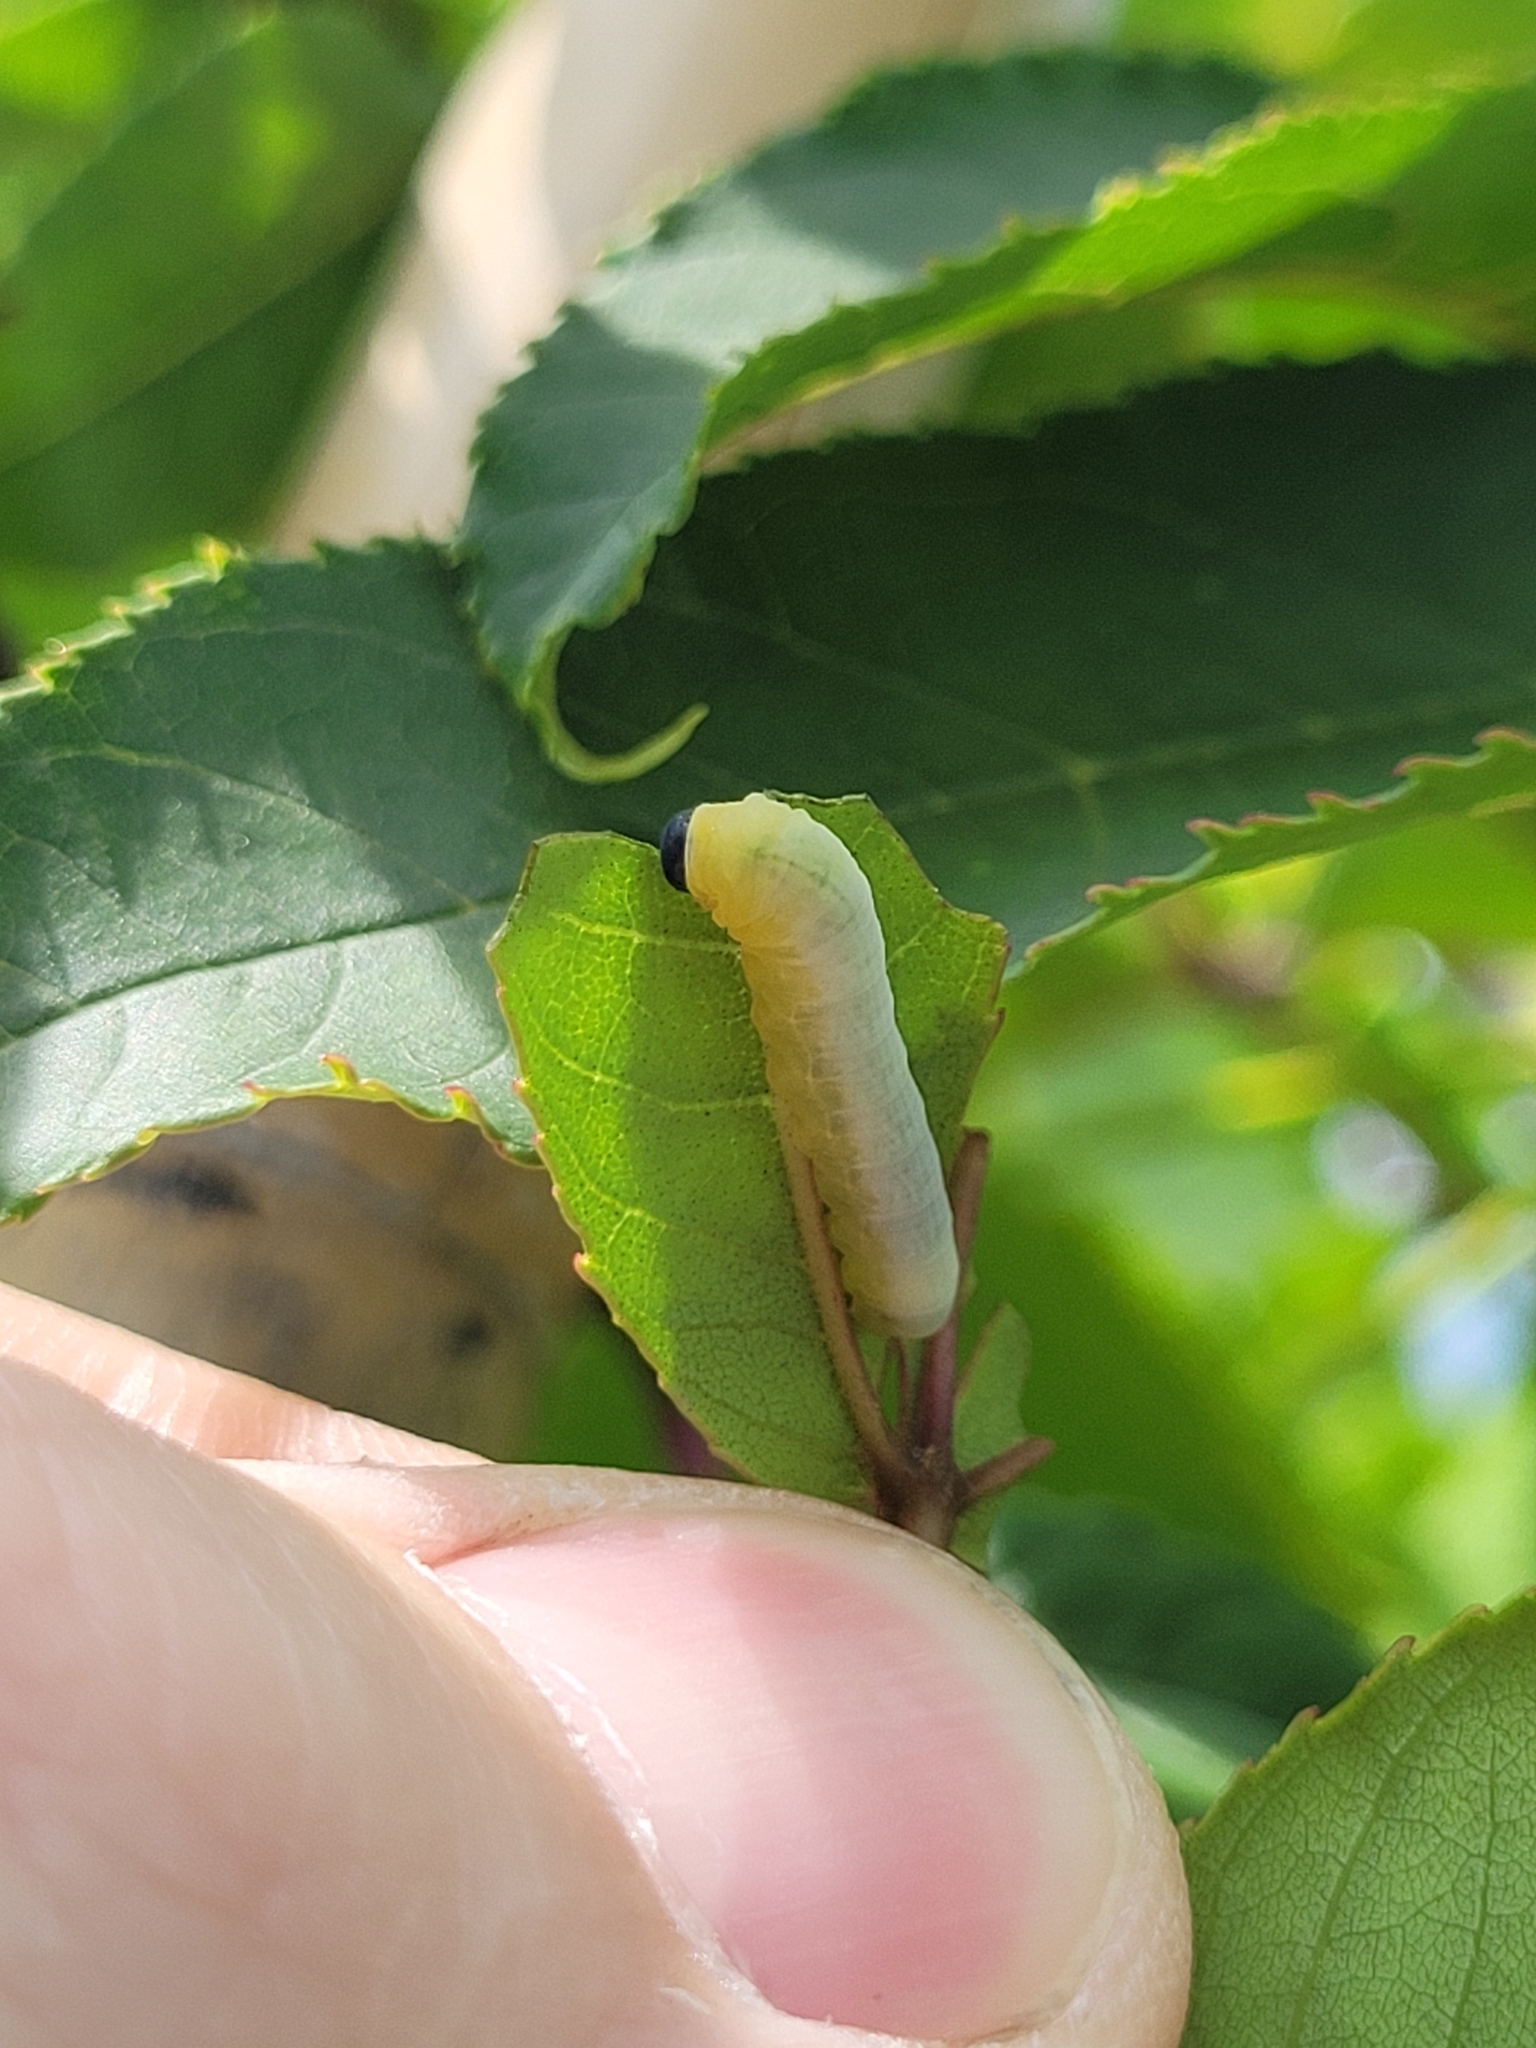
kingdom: Animalia
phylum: Arthropoda
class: Insecta
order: Hymenoptera
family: Tenthredinidae
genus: Tethida
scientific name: Tethida barda
